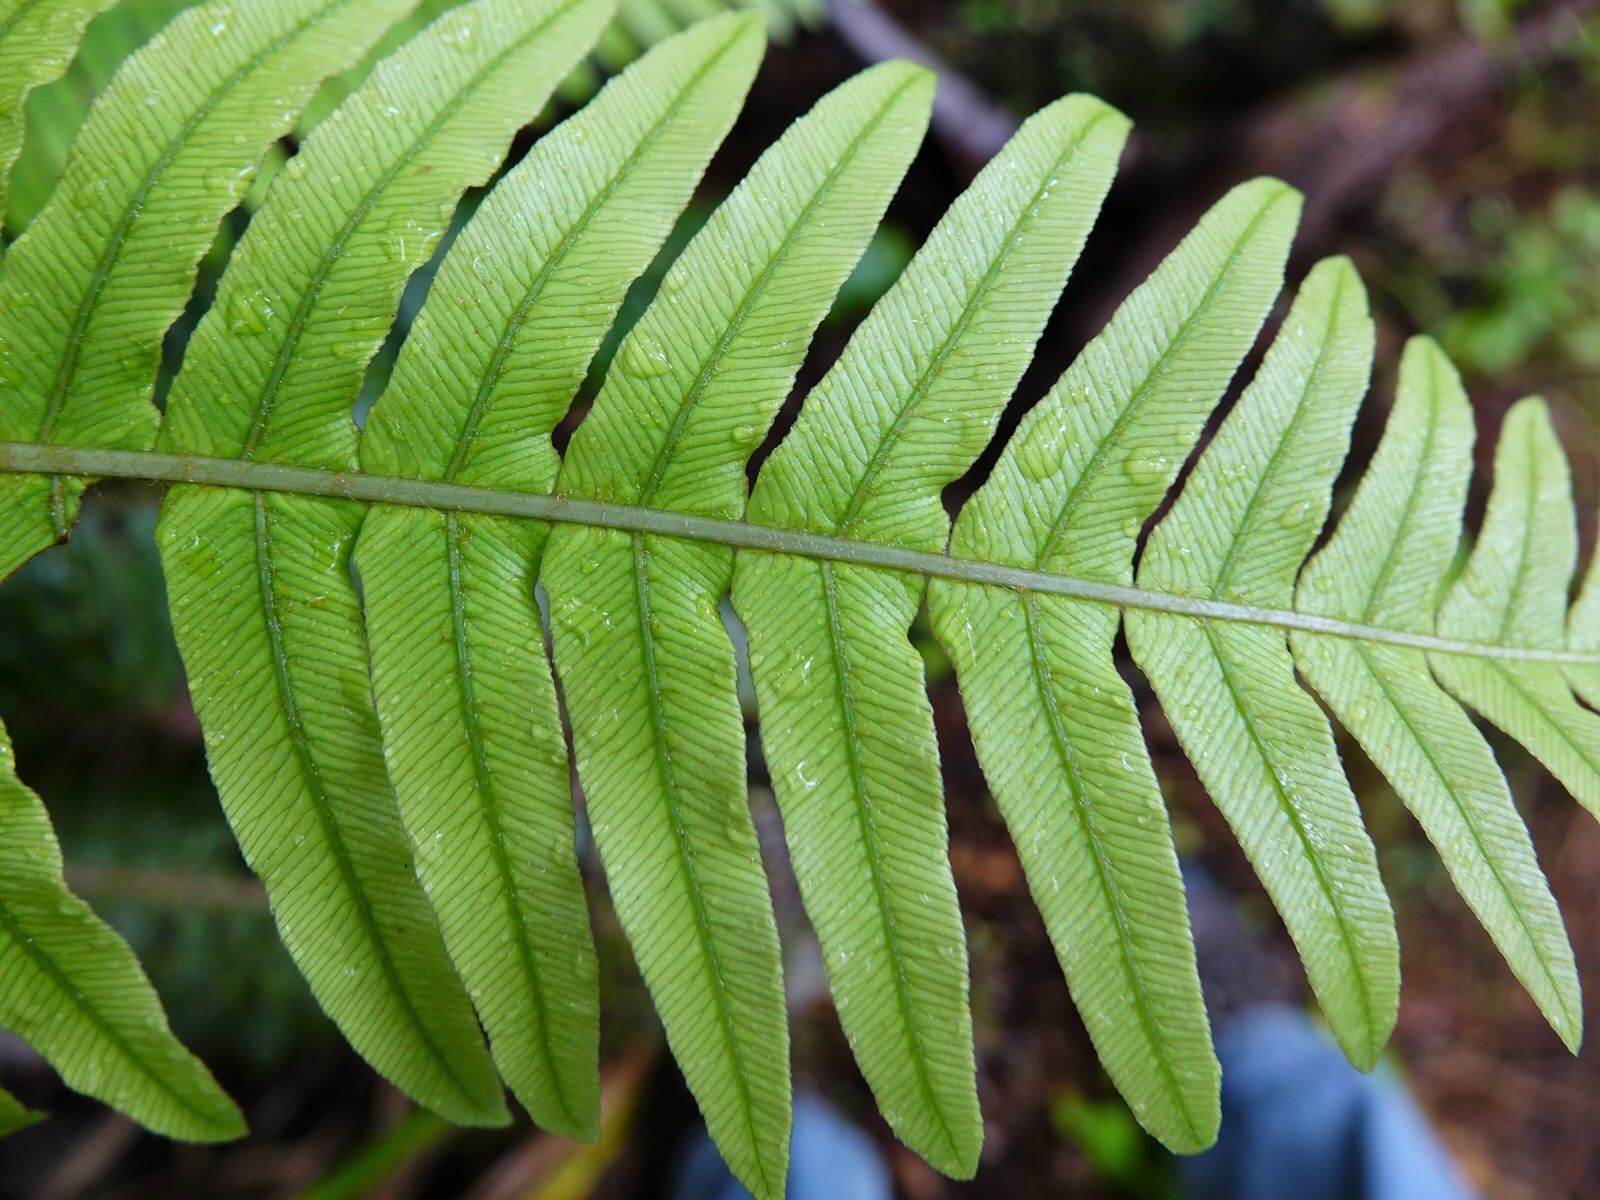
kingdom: Plantae
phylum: Tracheophyta
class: Polypodiopsida
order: Polypodiales
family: Blechnaceae
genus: Lomaria
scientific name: Lomaria discolor
